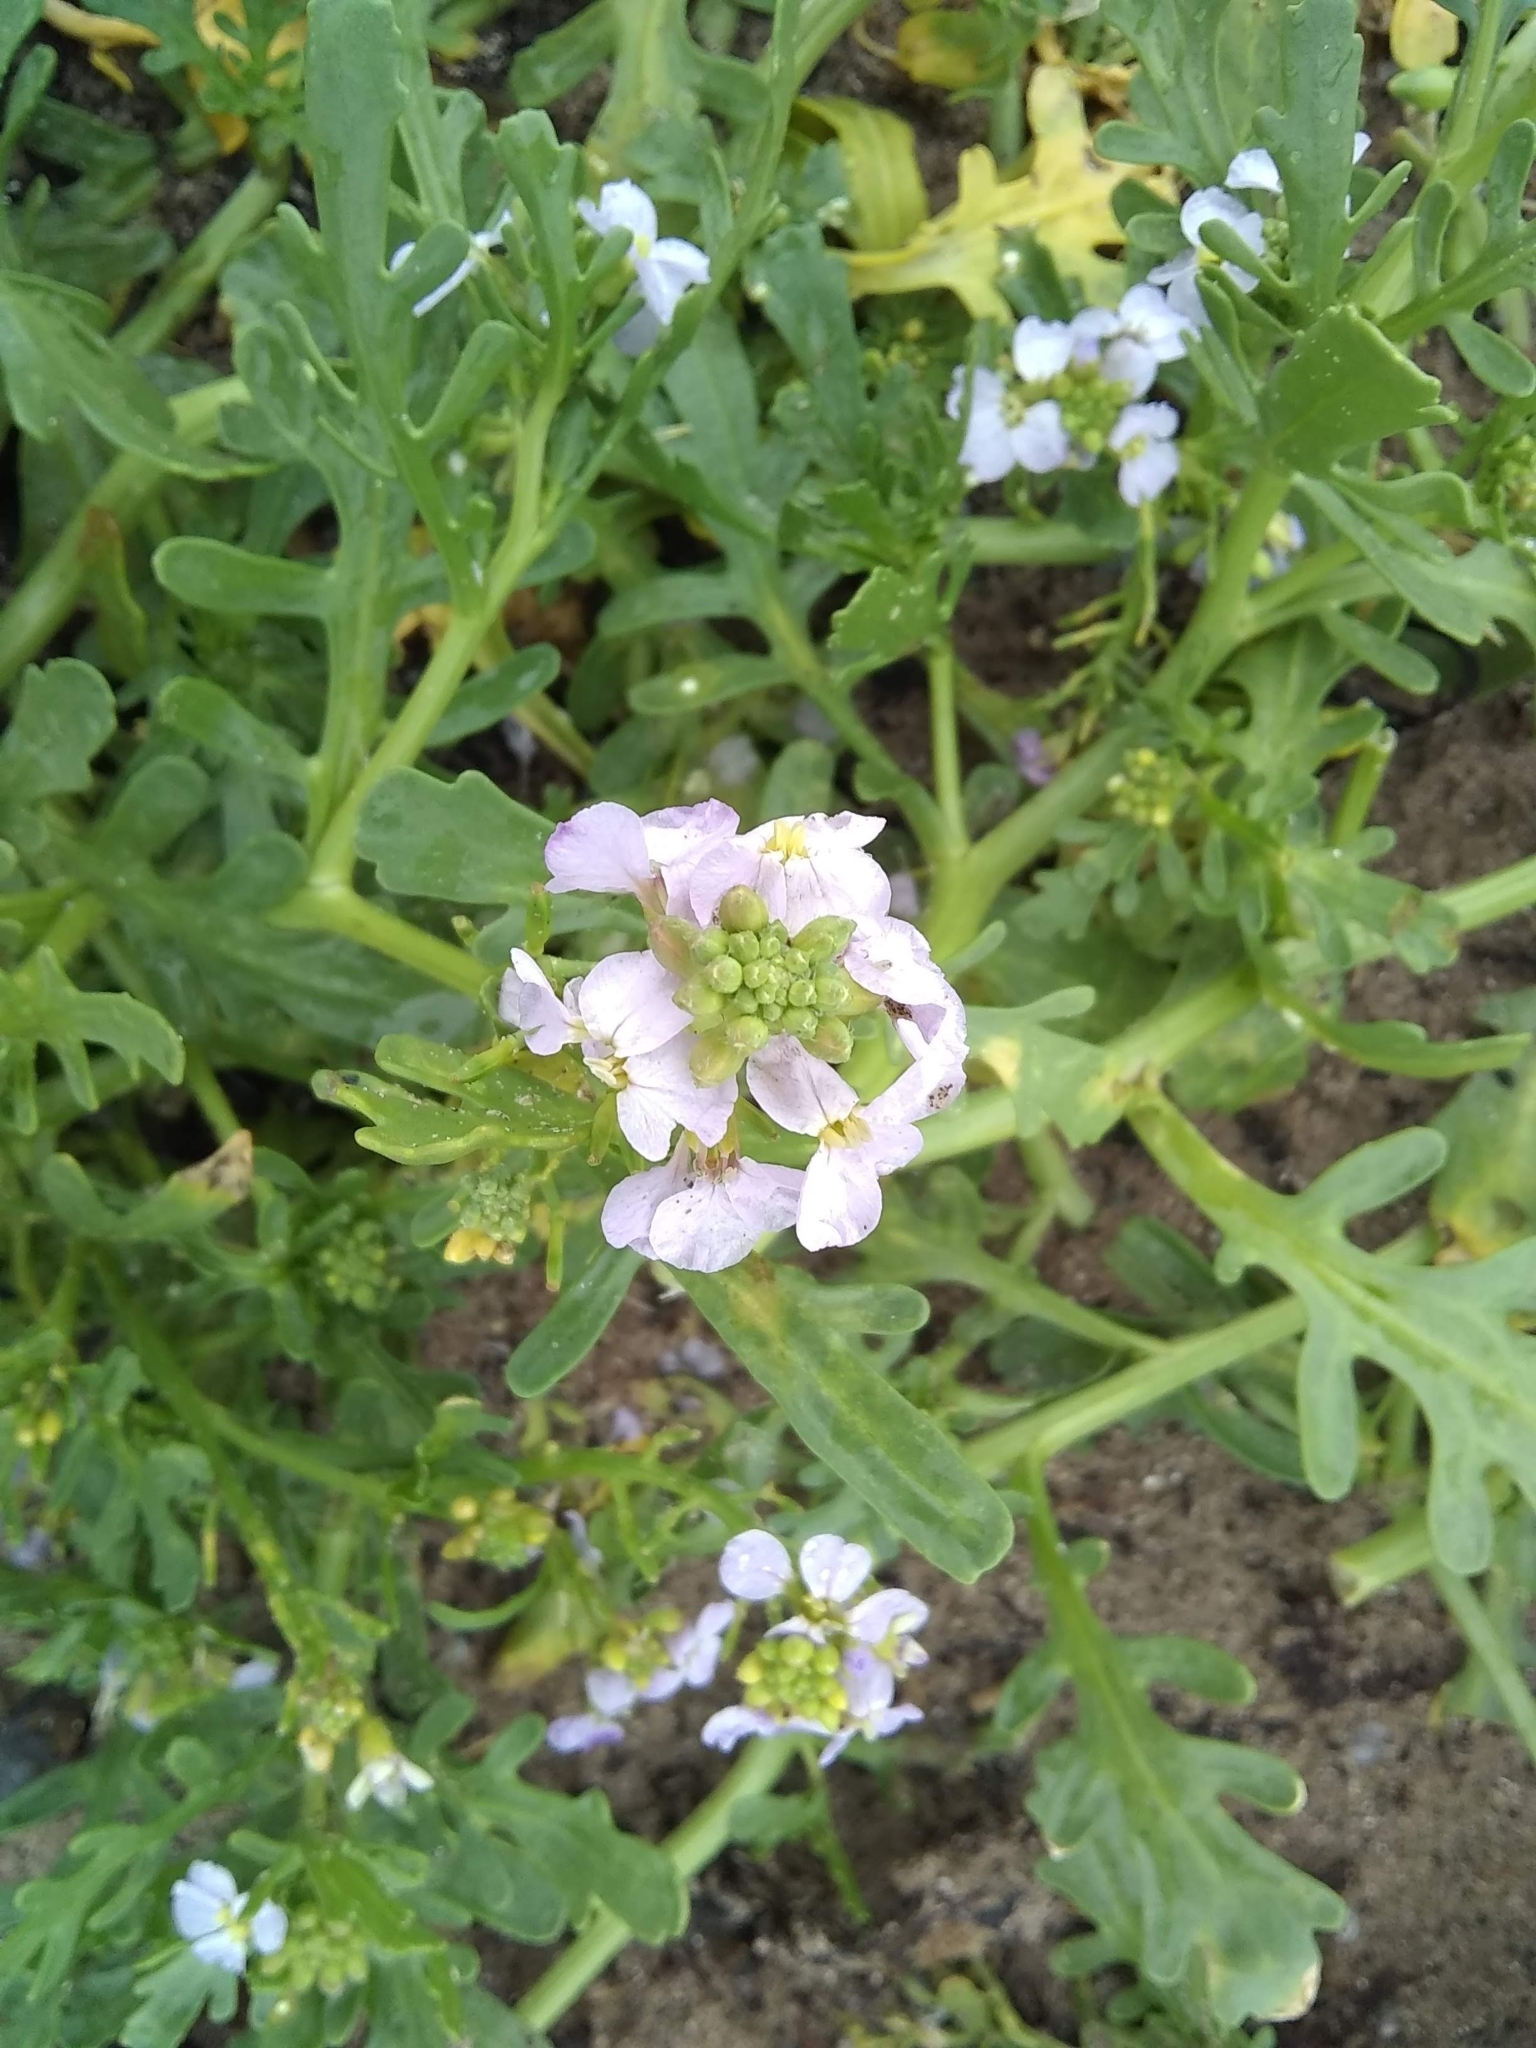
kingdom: Plantae
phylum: Tracheophyta
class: Magnoliopsida
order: Brassicales
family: Brassicaceae
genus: Cakile
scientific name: Cakile maritima
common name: Sea rocket
